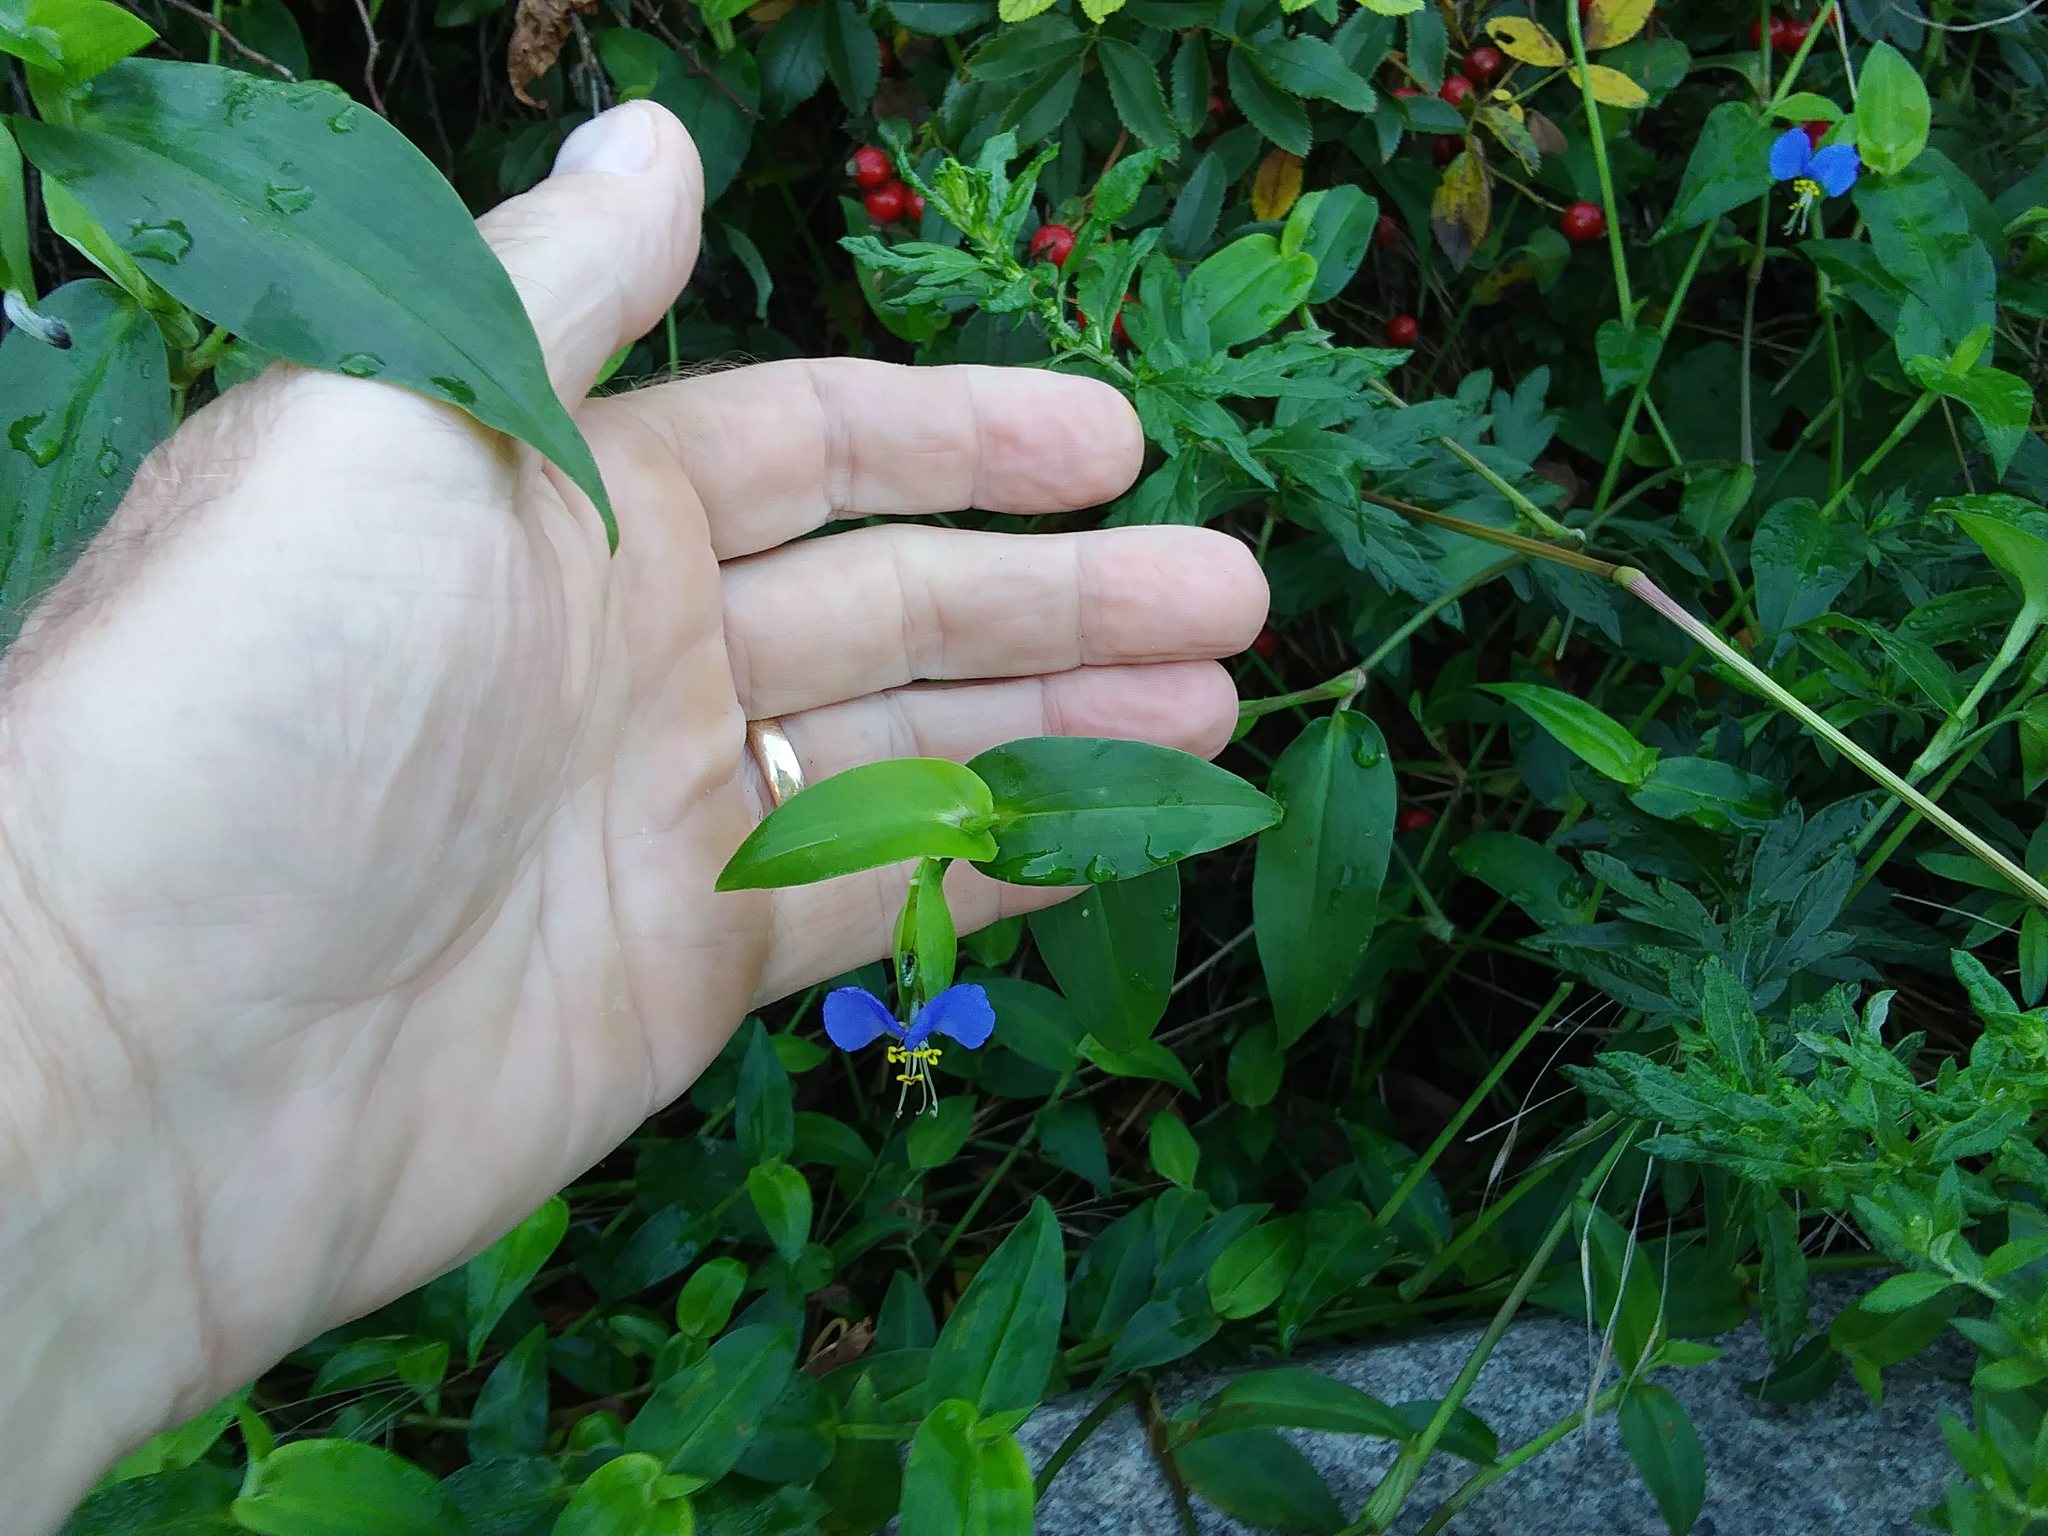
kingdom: Plantae
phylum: Tracheophyta
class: Liliopsida
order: Commelinales
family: Commelinaceae
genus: Commelina
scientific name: Commelina communis
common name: Asiatic dayflower
